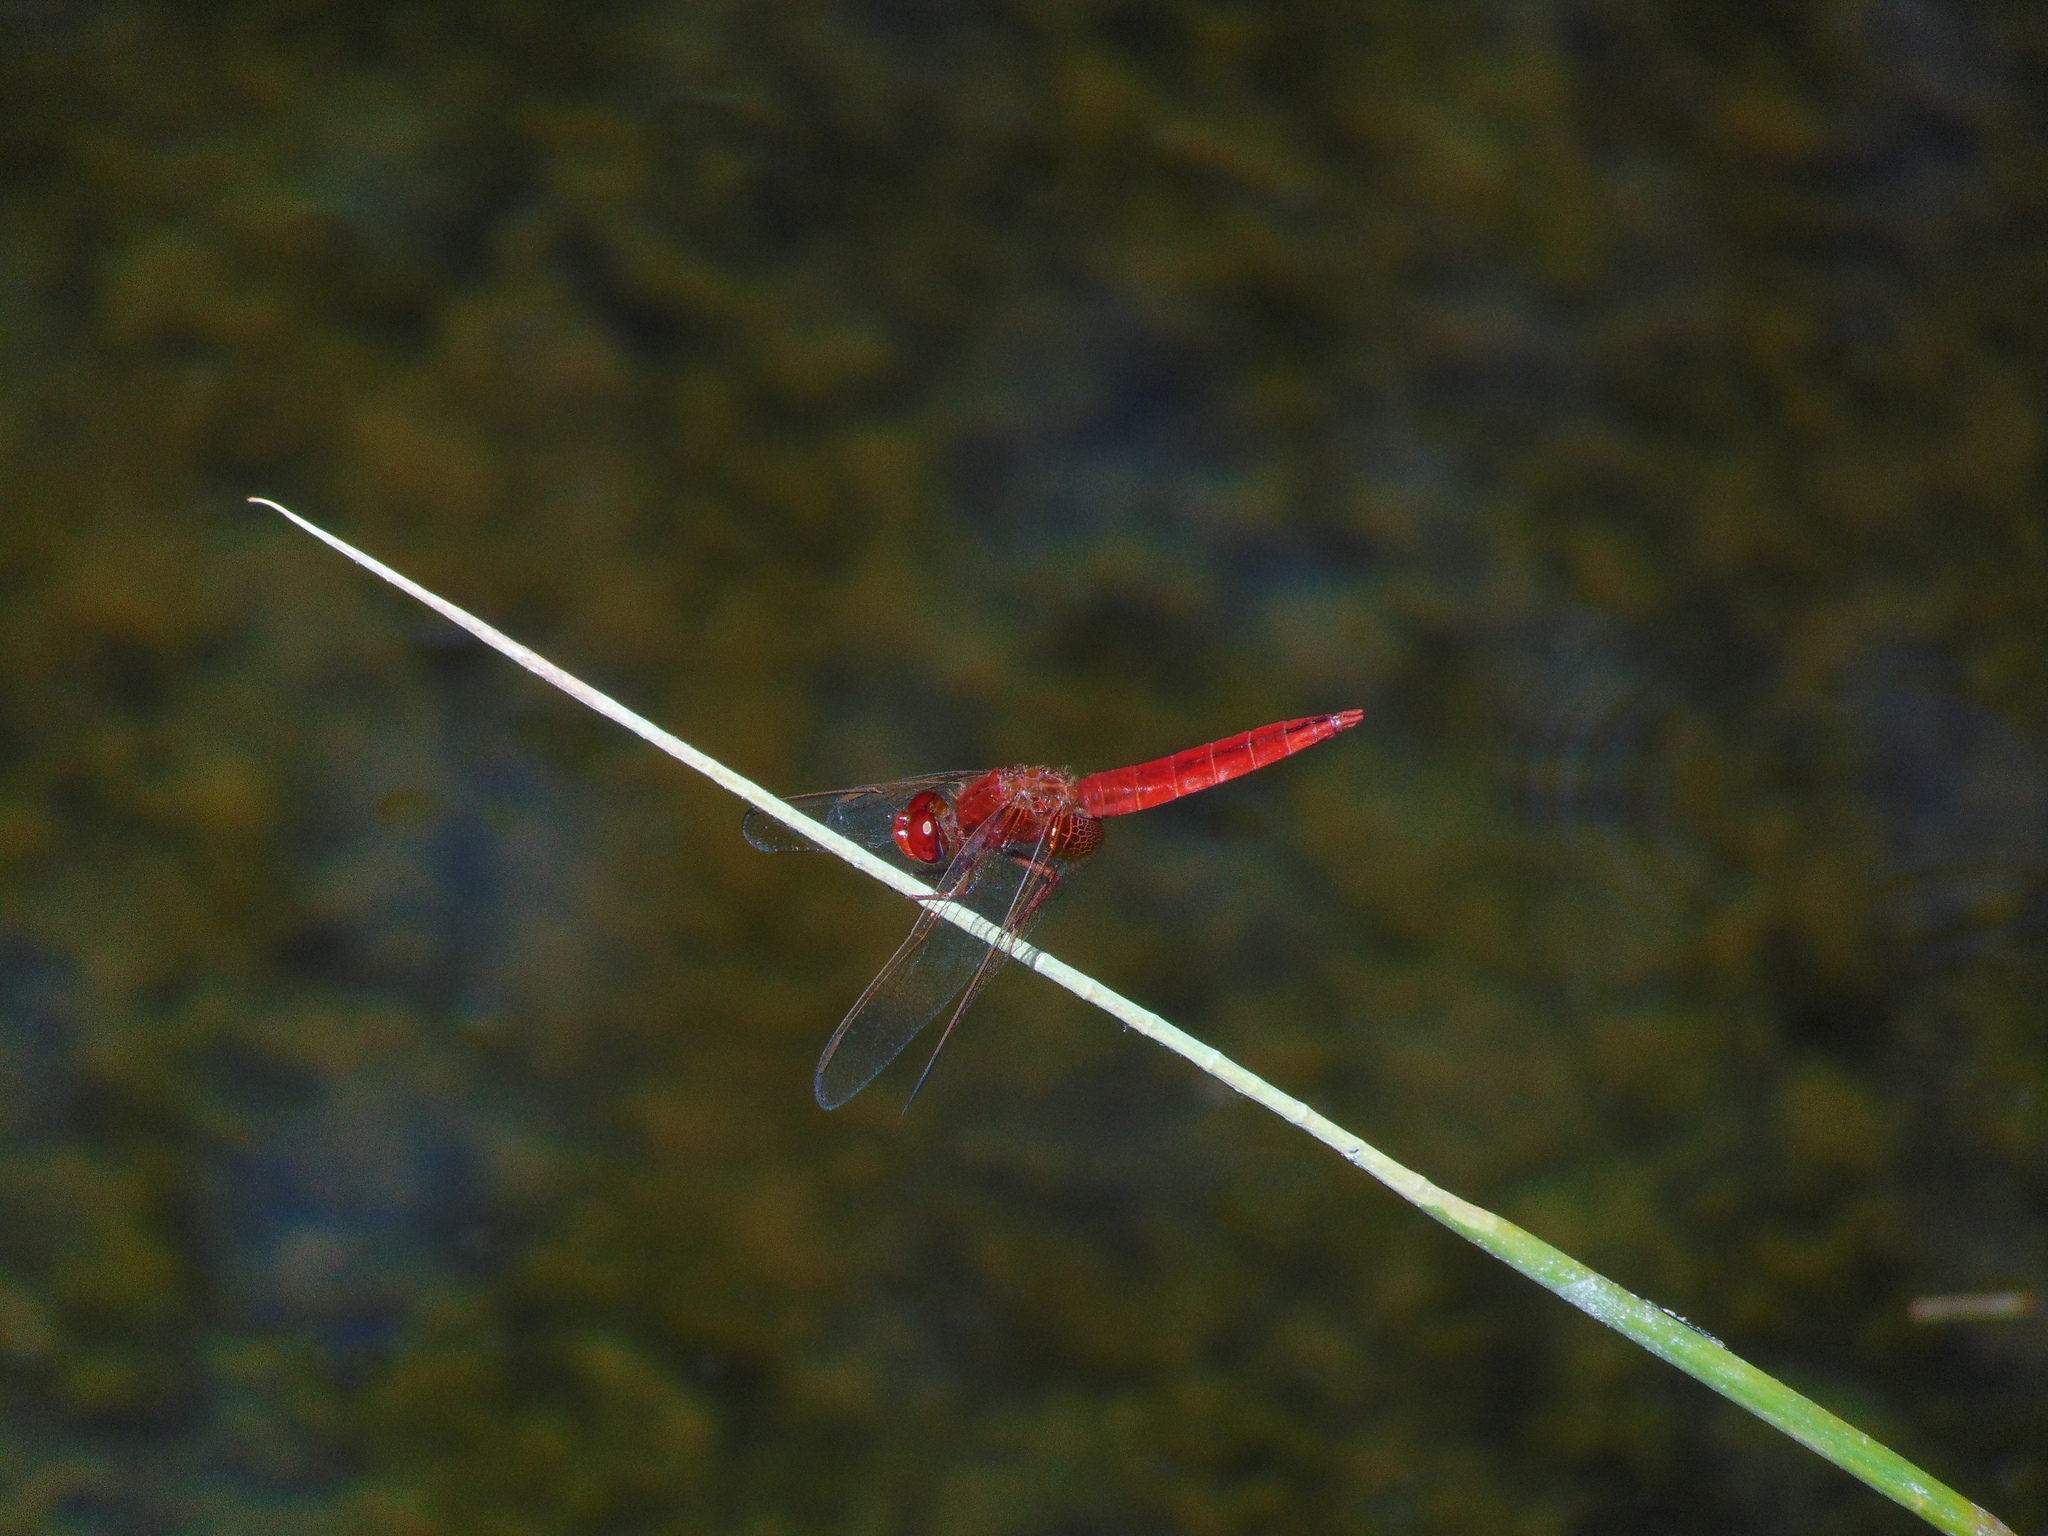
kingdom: Animalia
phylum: Arthropoda
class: Insecta
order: Odonata
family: Libellulidae
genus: Crocothemis
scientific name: Crocothemis erythraea
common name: Scarlet dragonfly
